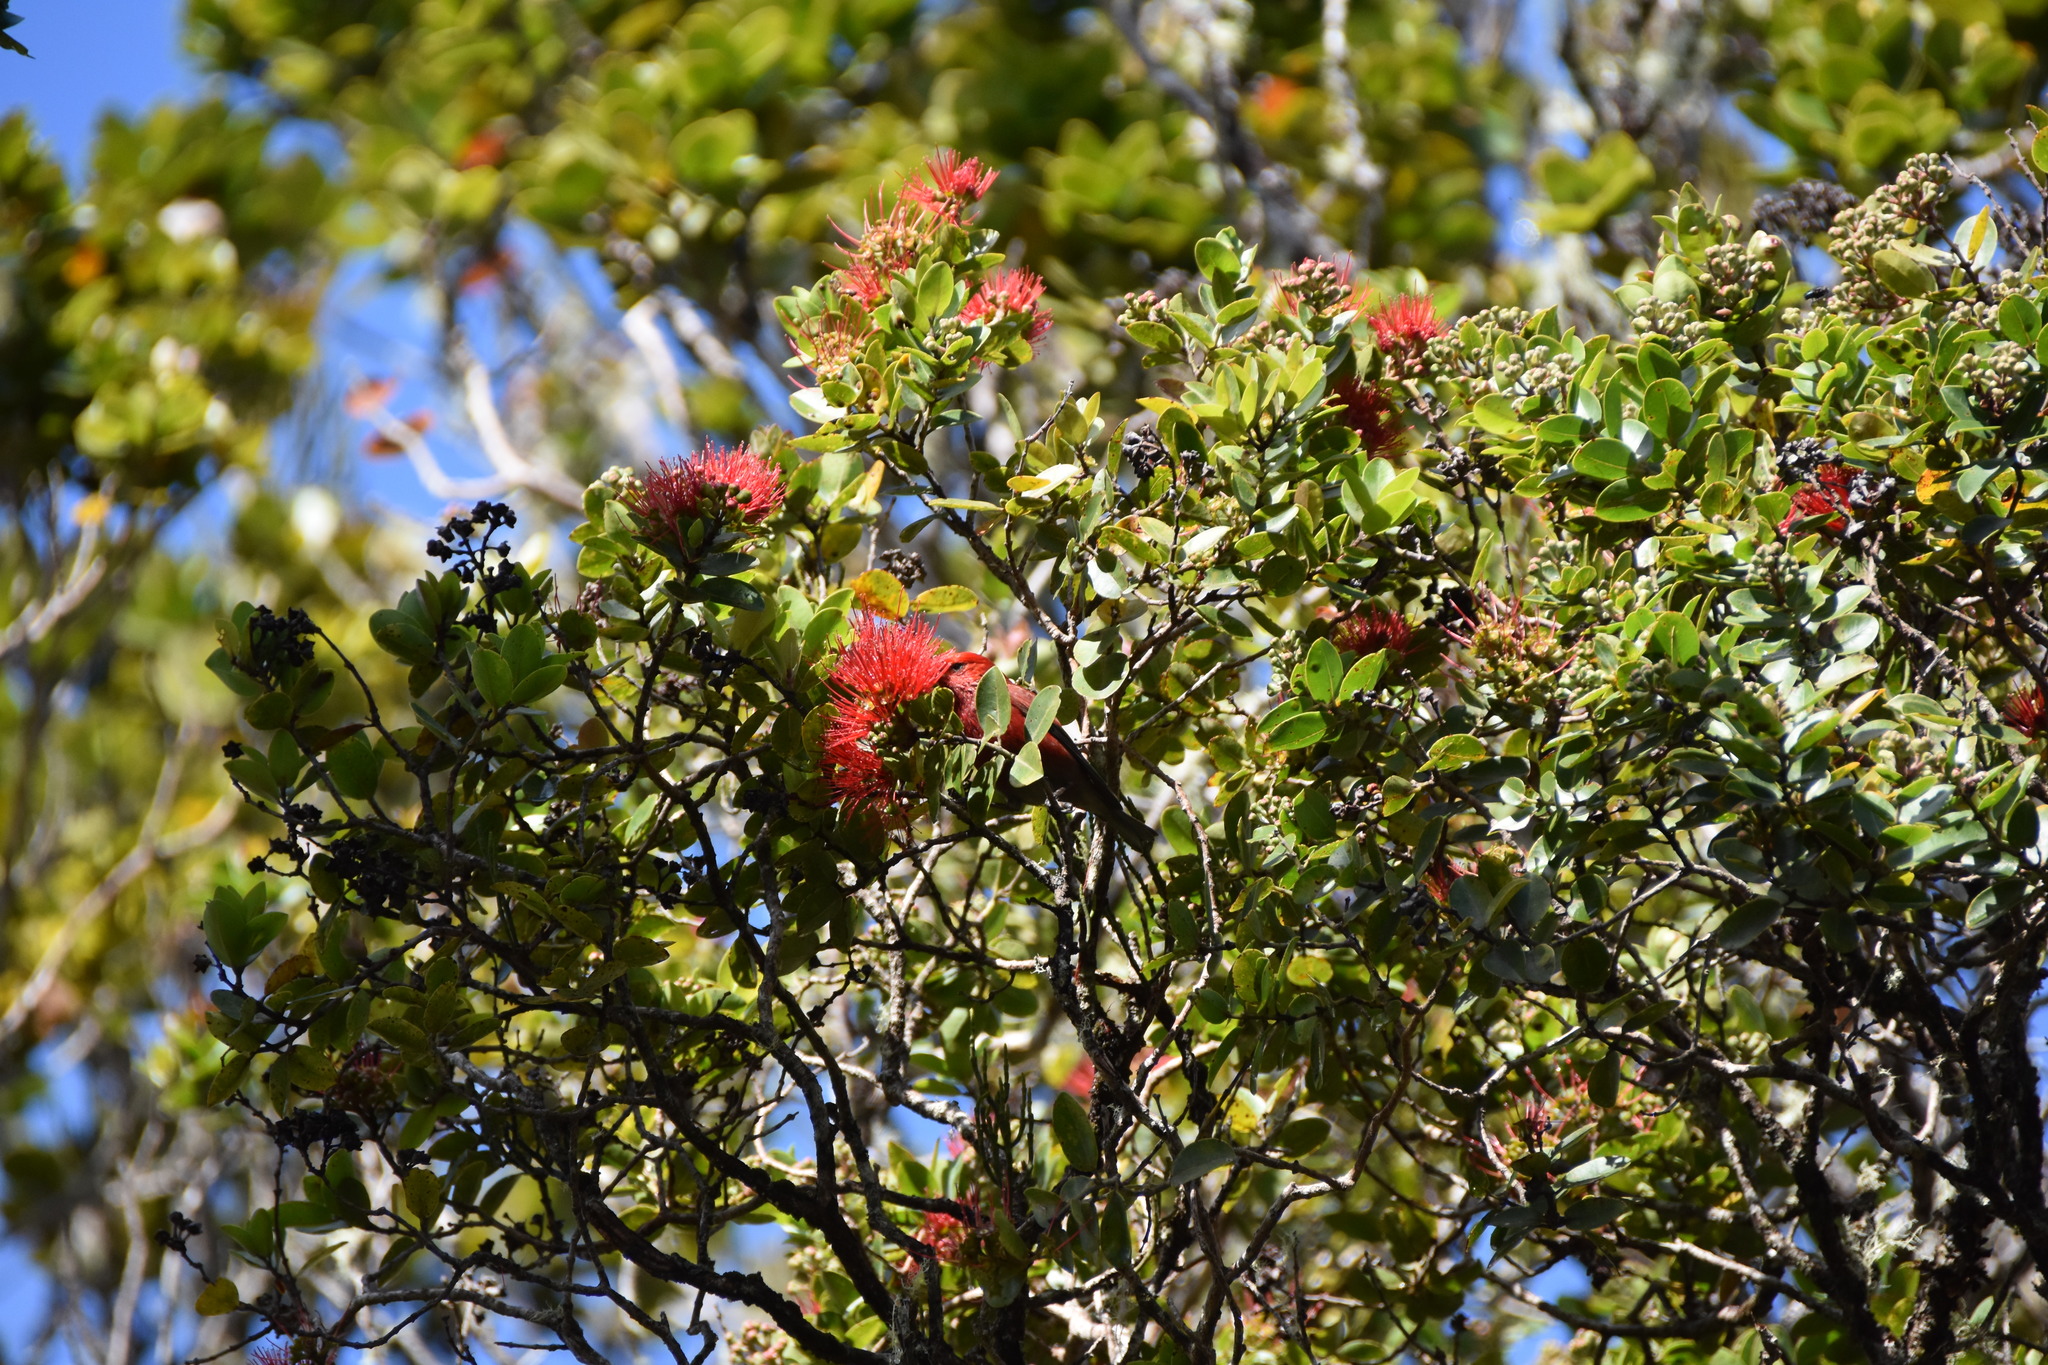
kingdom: Plantae
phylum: Tracheophyta
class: Magnoliopsida
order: Myrtales
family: Myrtaceae
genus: Metrosideros
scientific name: Metrosideros polymorpha
